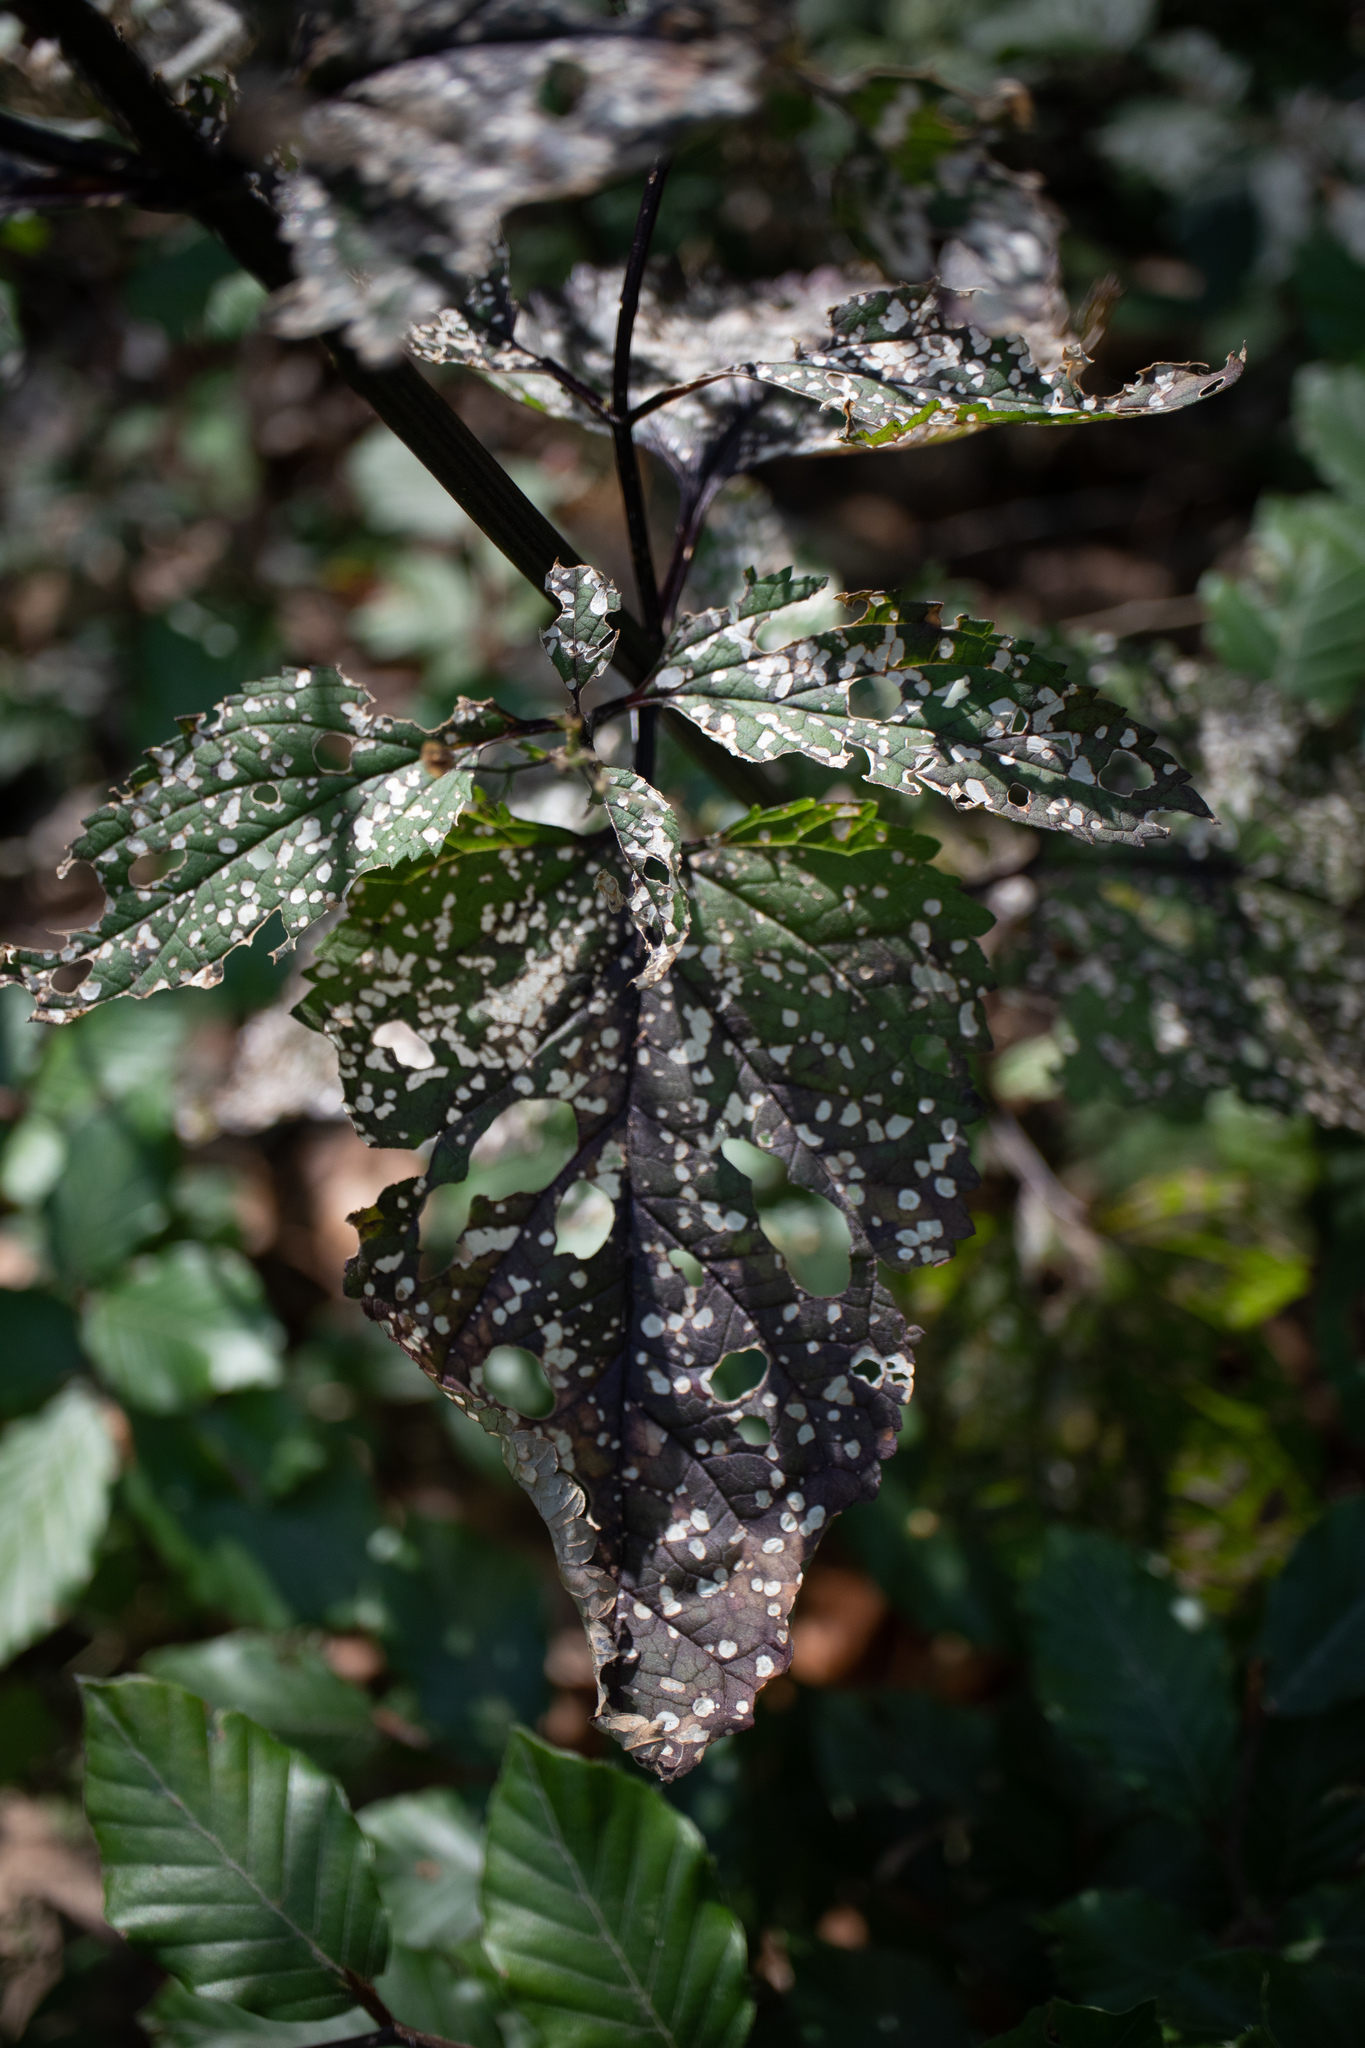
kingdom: Plantae
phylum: Tracheophyta
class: Magnoliopsida
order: Lamiales
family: Scrophulariaceae
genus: Scrophularia
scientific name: Scrophularia nodosa
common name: Common figwort
